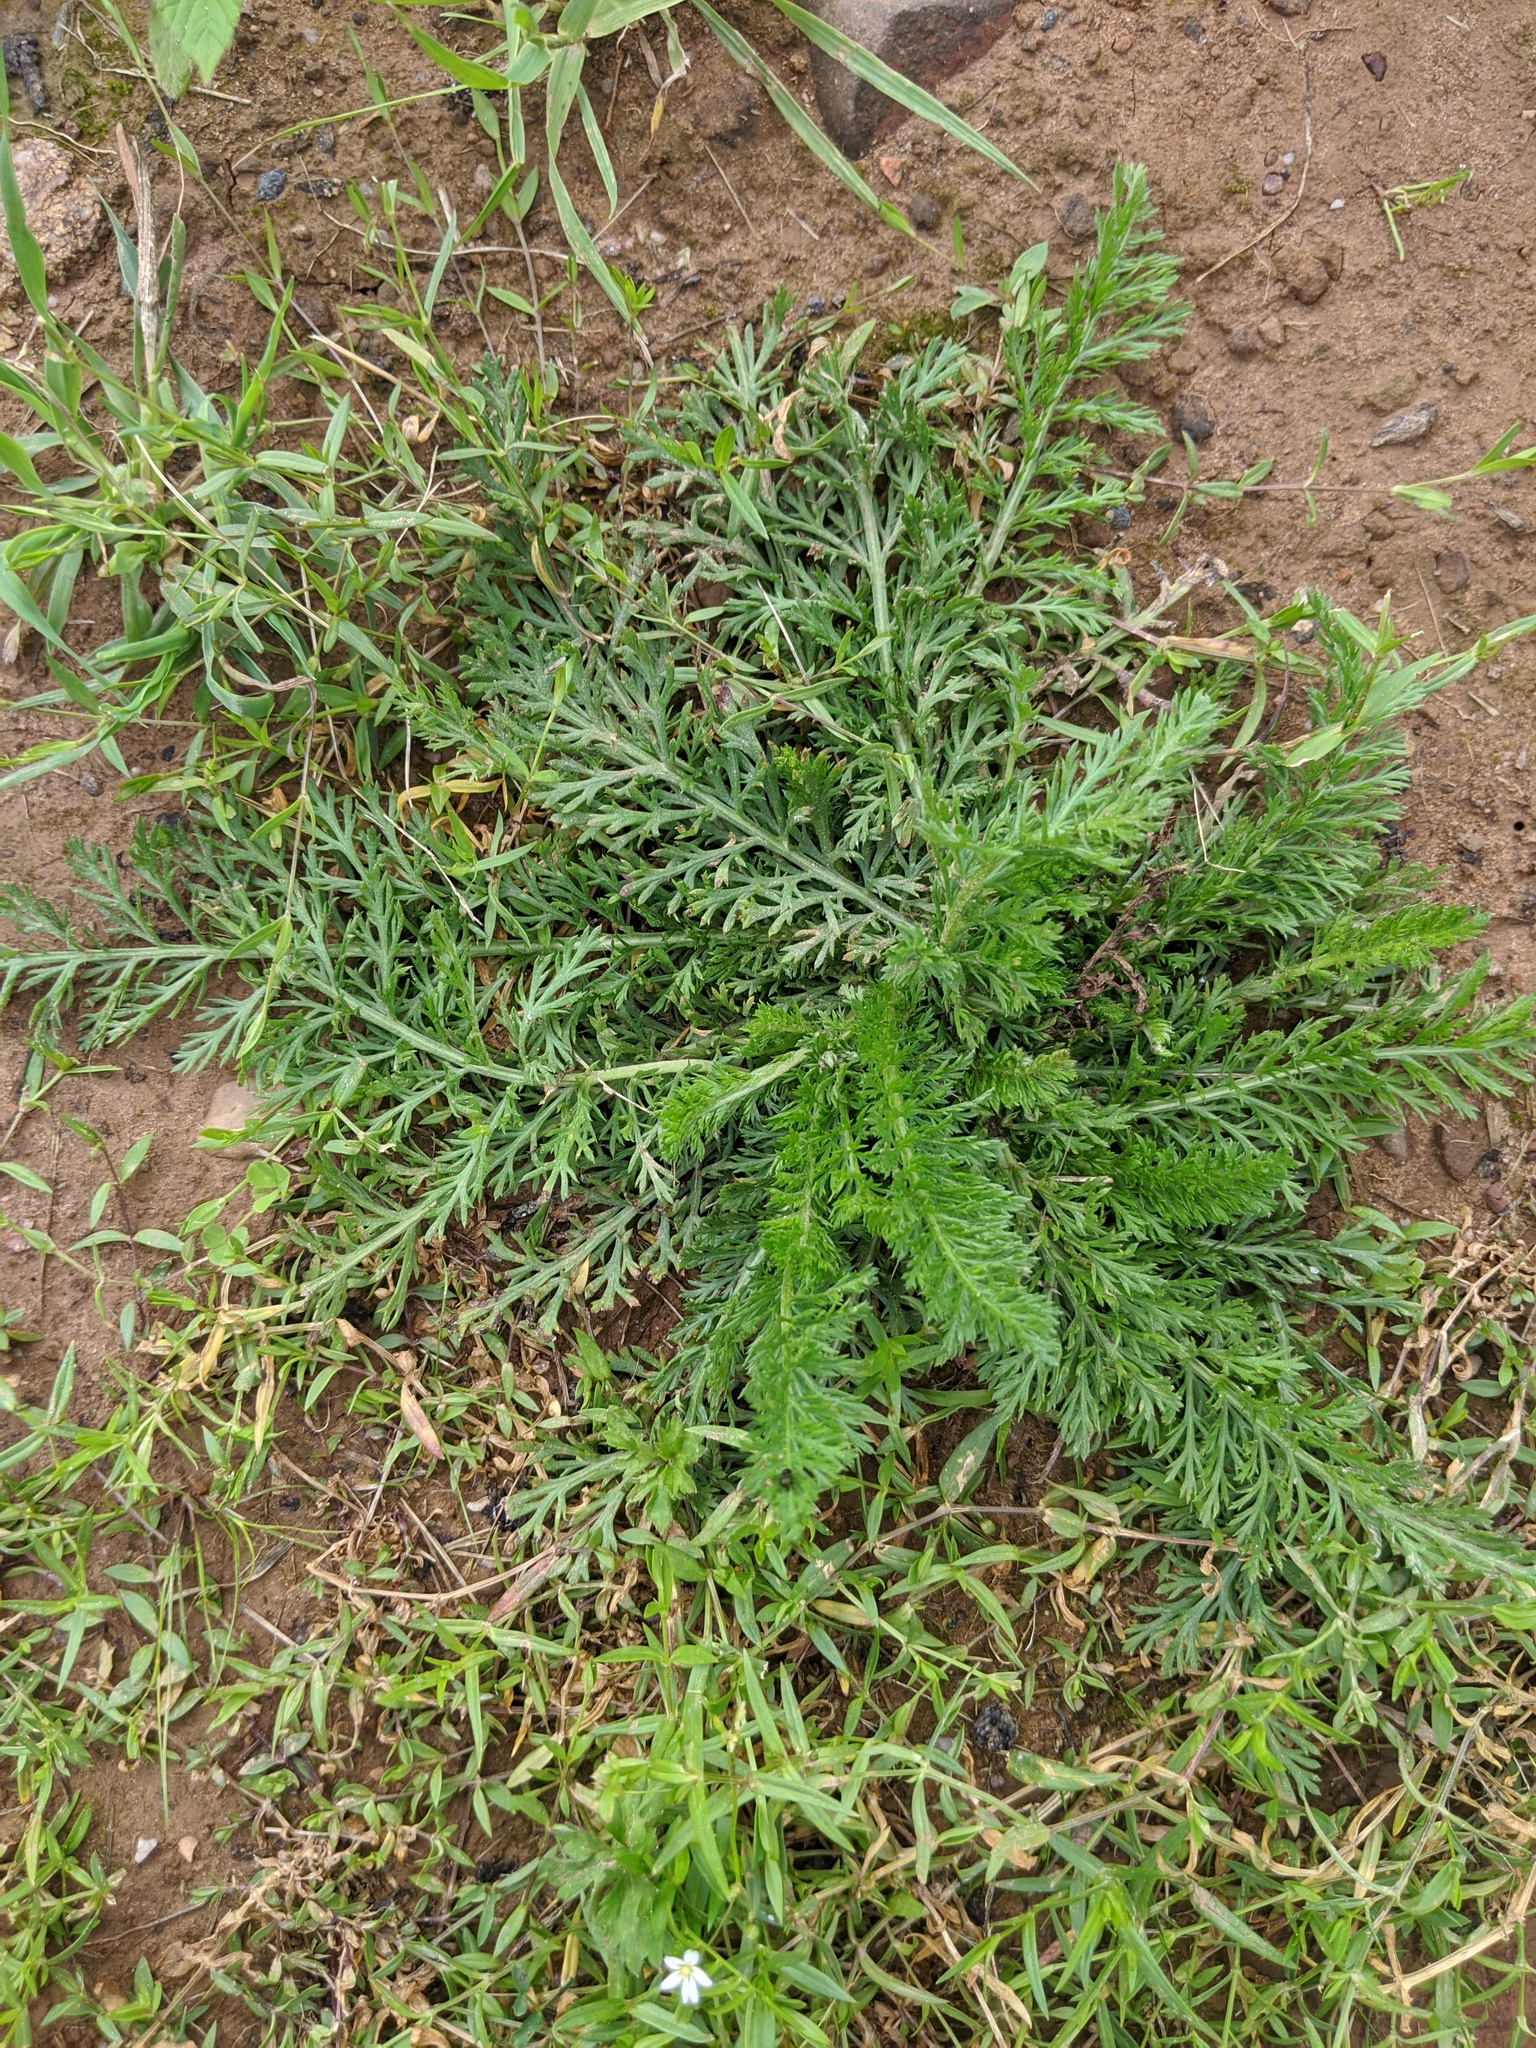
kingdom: Plantae
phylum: Tracheophyta
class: Magnoliopsida
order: Asterales
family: Asteraceae
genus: Achillea
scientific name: Achillea millefolium
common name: Yarrow
